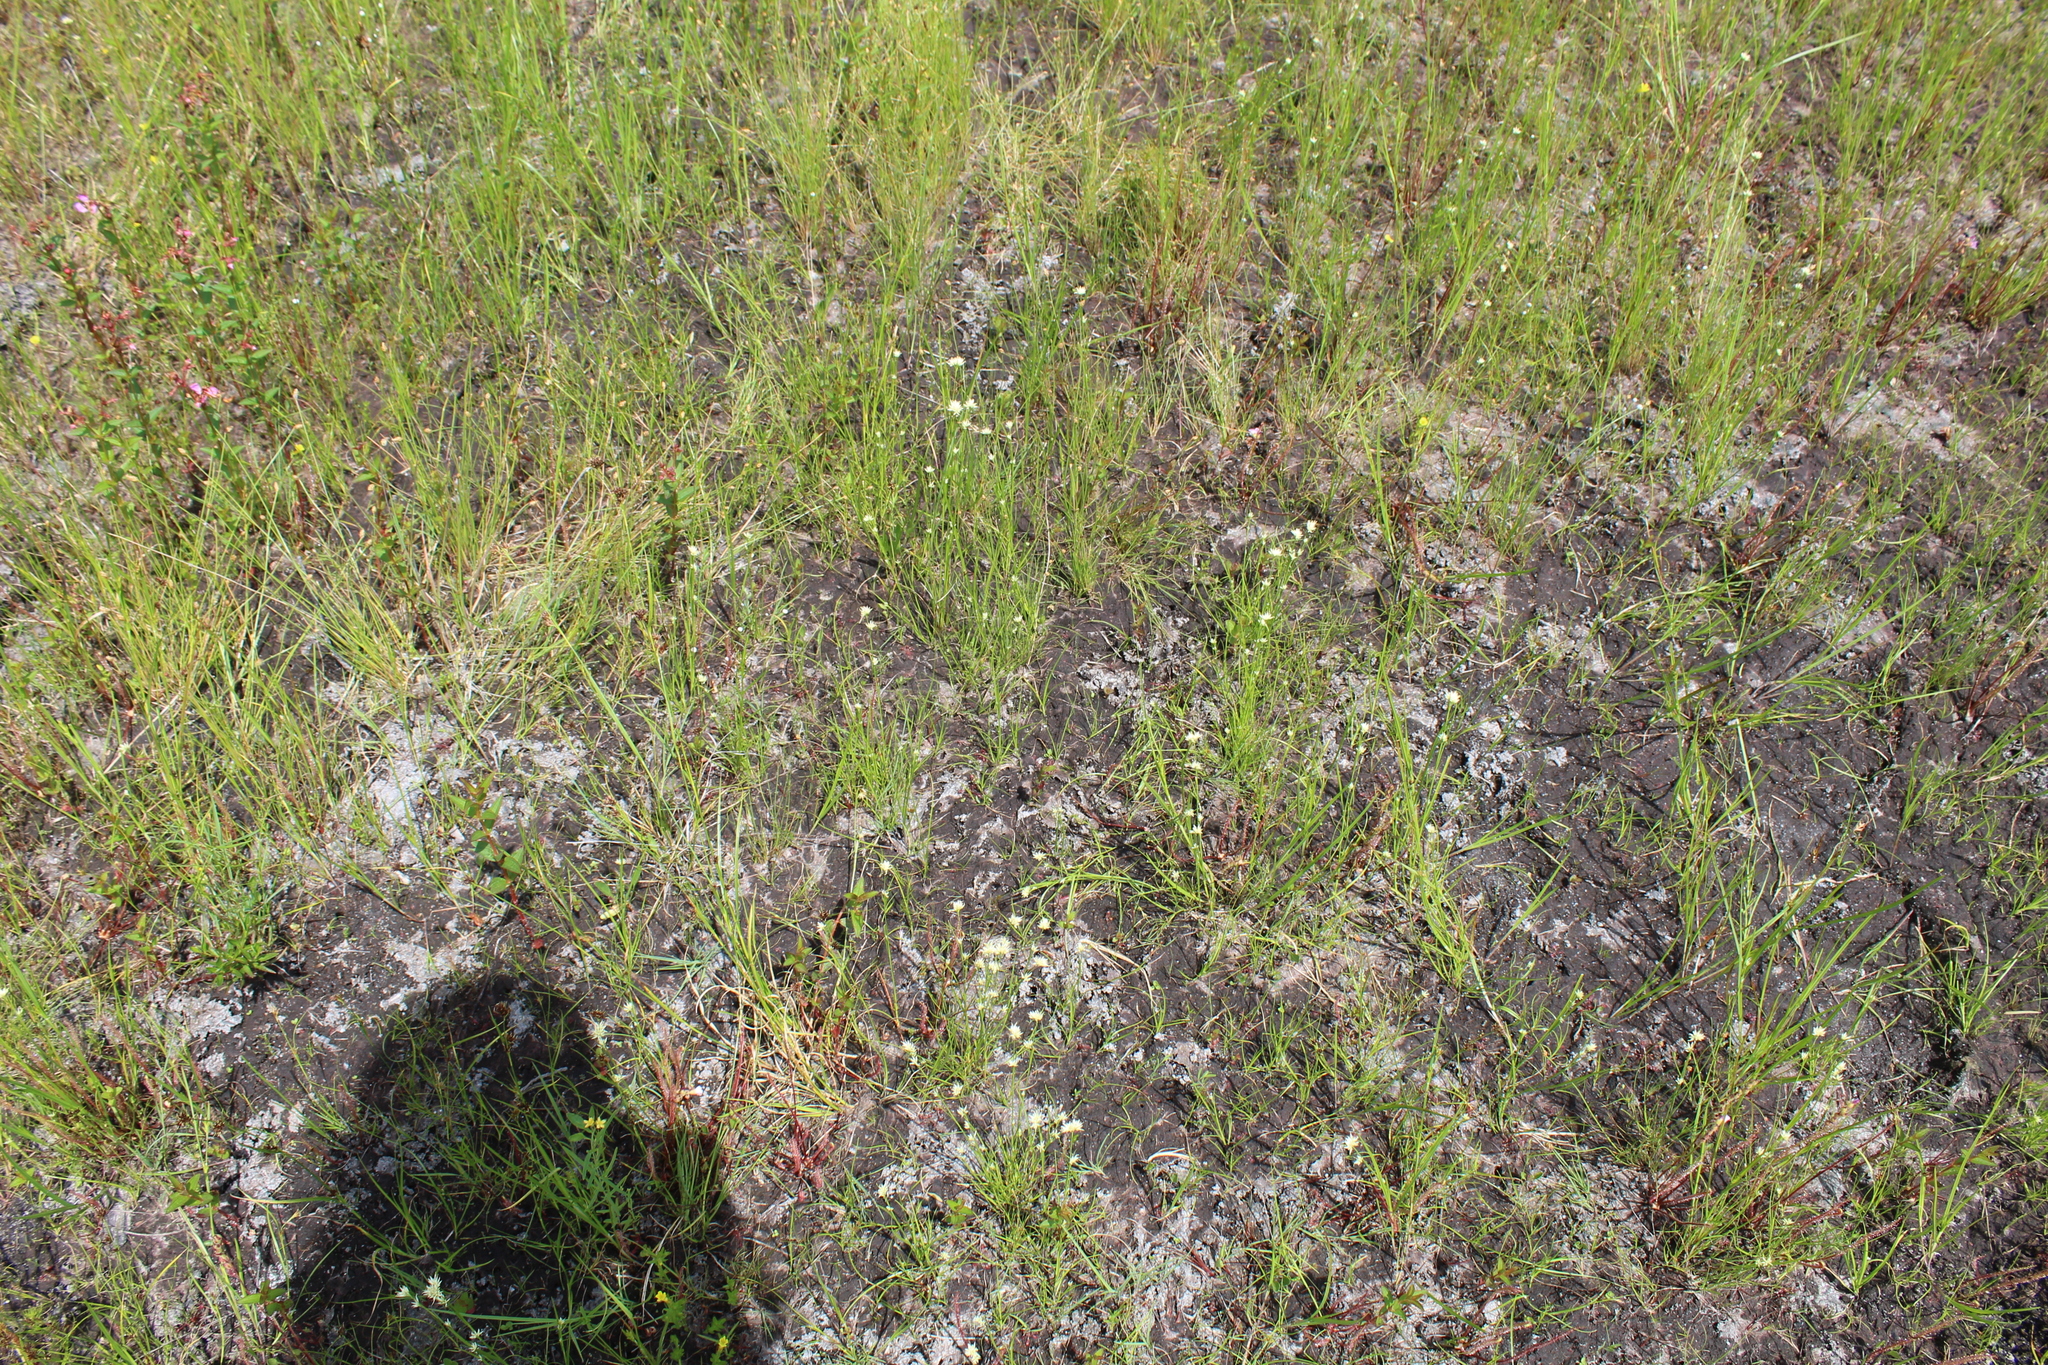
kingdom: Plantae
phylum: Tracheophyta
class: Liliopsida
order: Poales
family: Cyperaceae
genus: Rhynchospora
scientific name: Rhynchospora alba
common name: White beak-sedge
